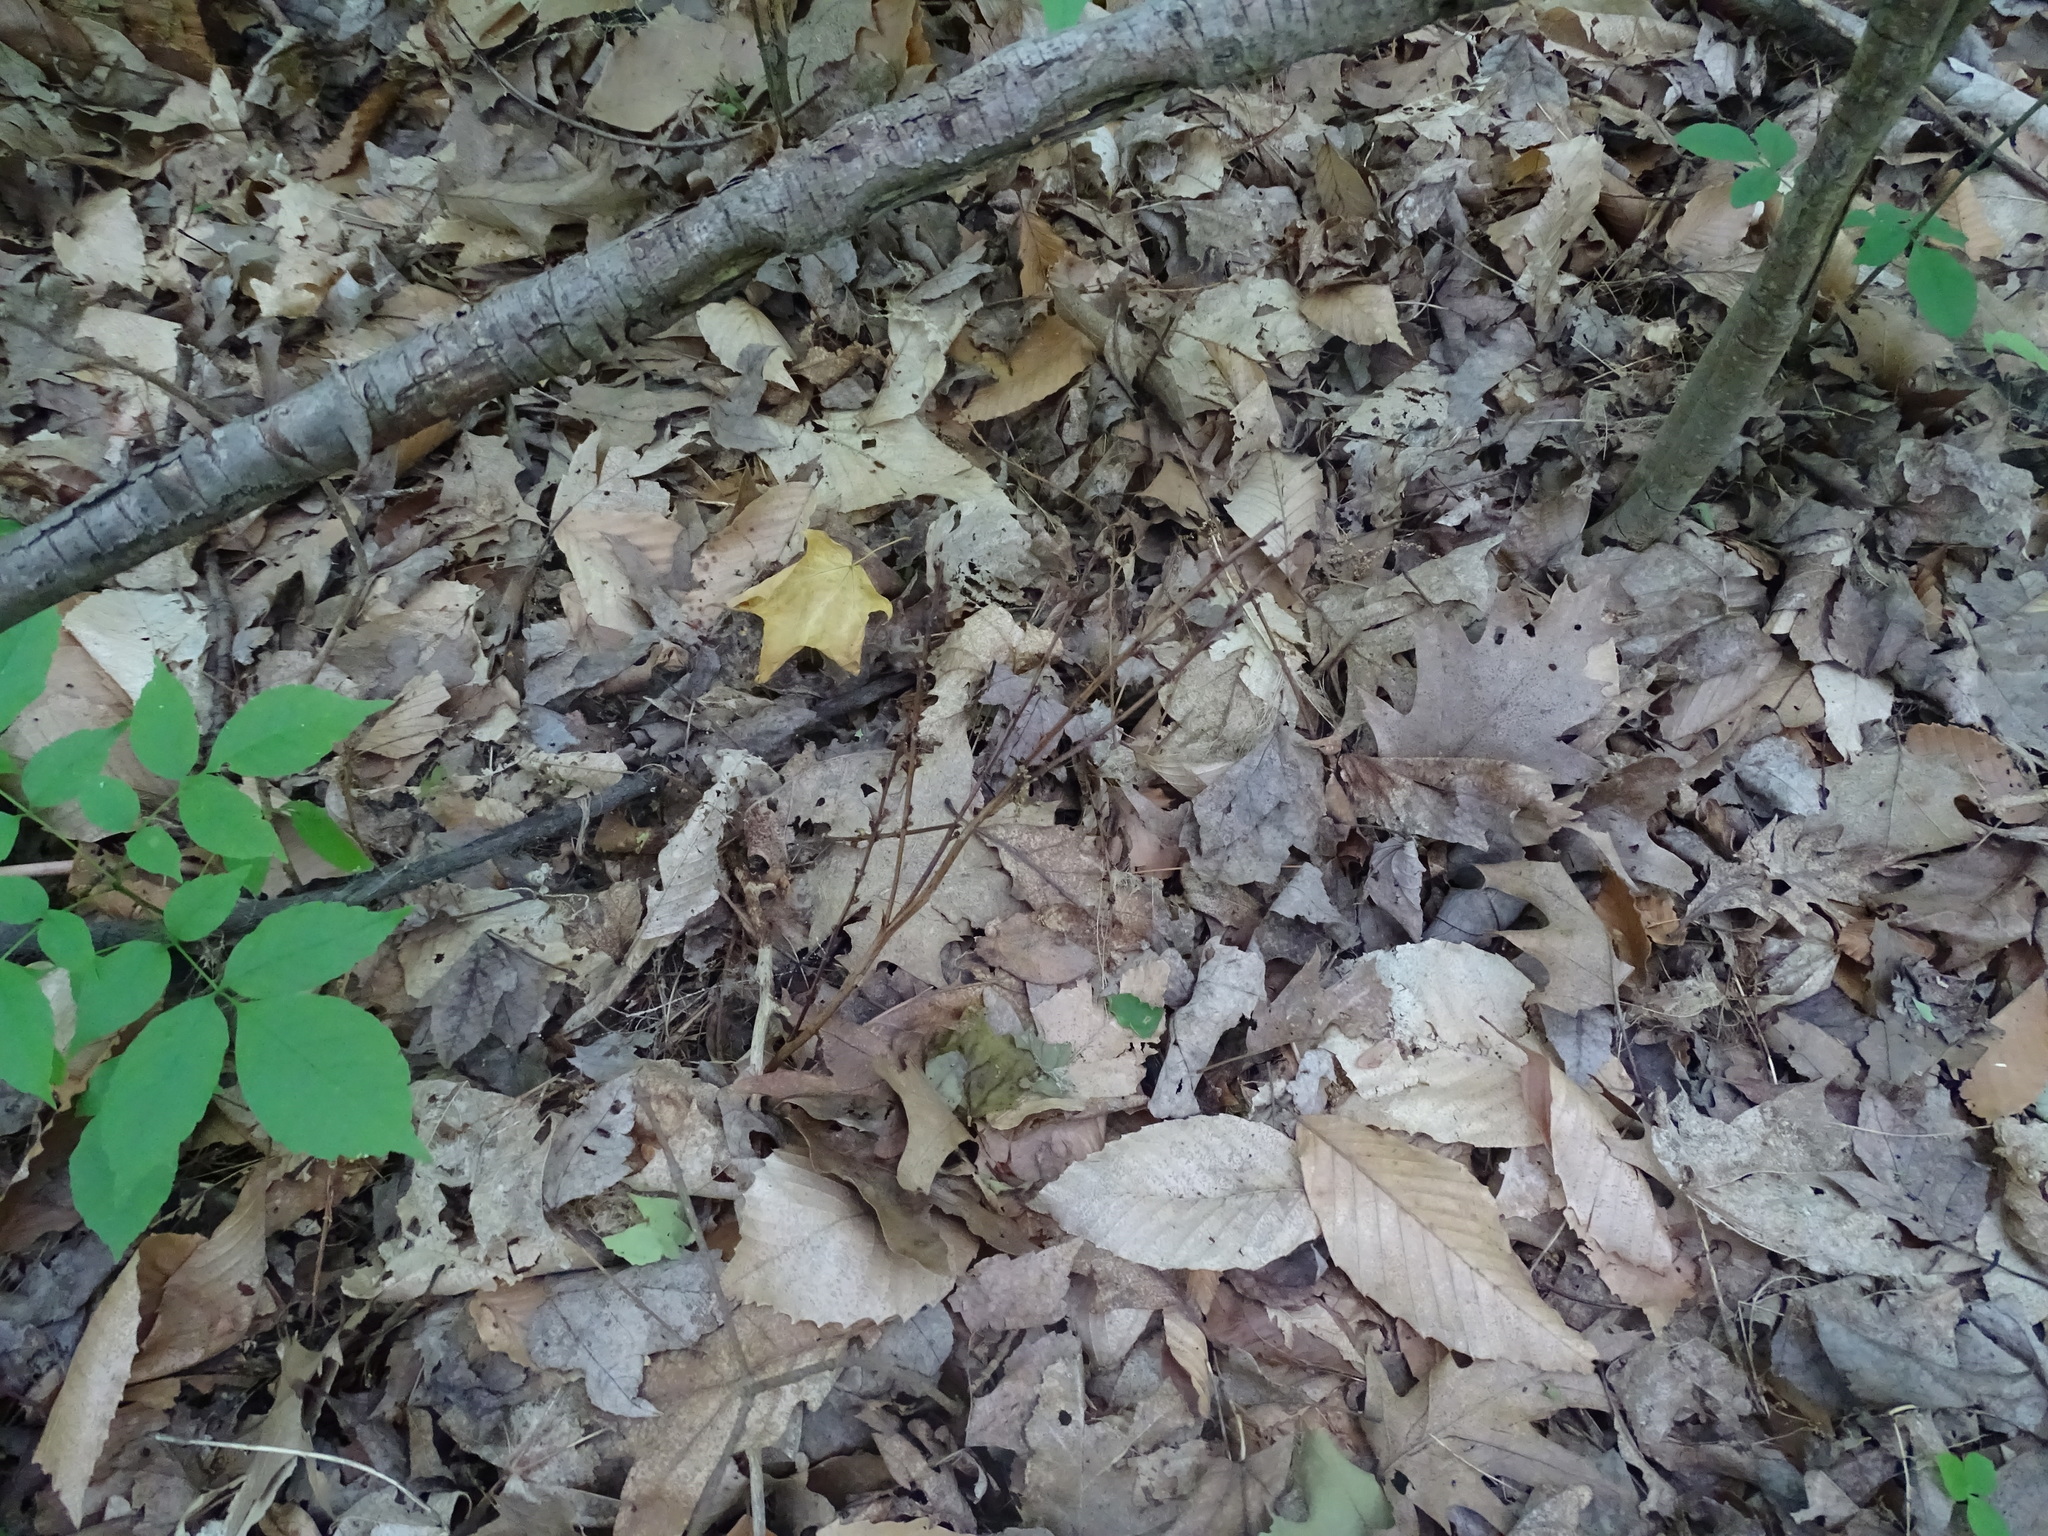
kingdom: Plantae
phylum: Tracheophyta
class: Magnoliopsida
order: Lamiales
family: Orobanchaceae
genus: Epifagus
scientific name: Epifagus virginiana
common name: Beechdrops
